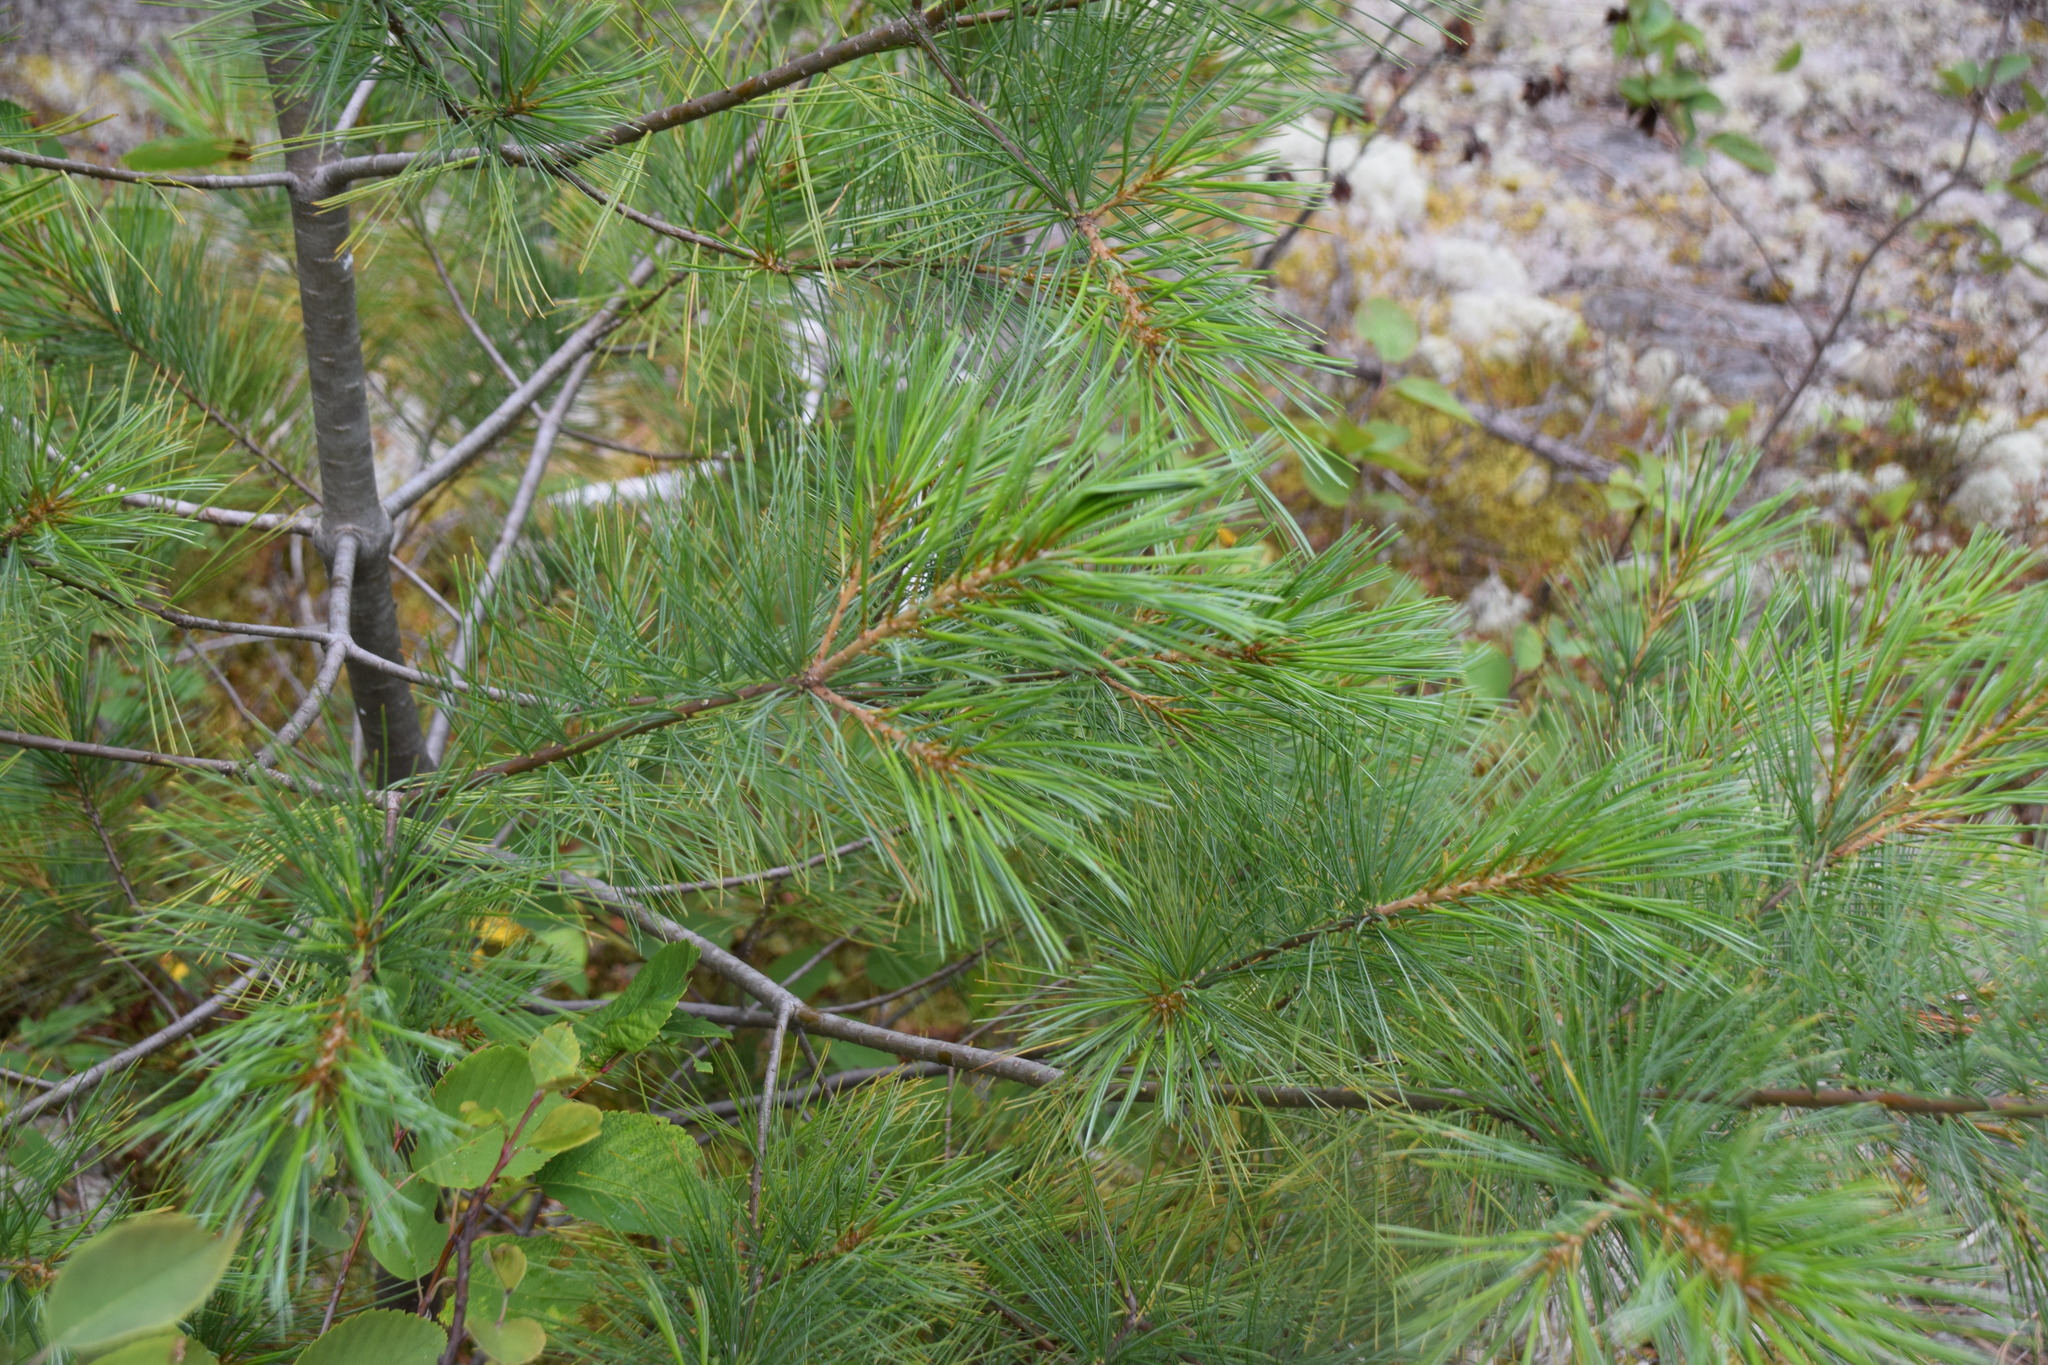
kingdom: Plantae
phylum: Tracheophyta
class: Pinopsida
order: Pinales
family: Pinaceae
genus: Pinus
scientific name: Pinus strobus
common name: Weymouth pine
